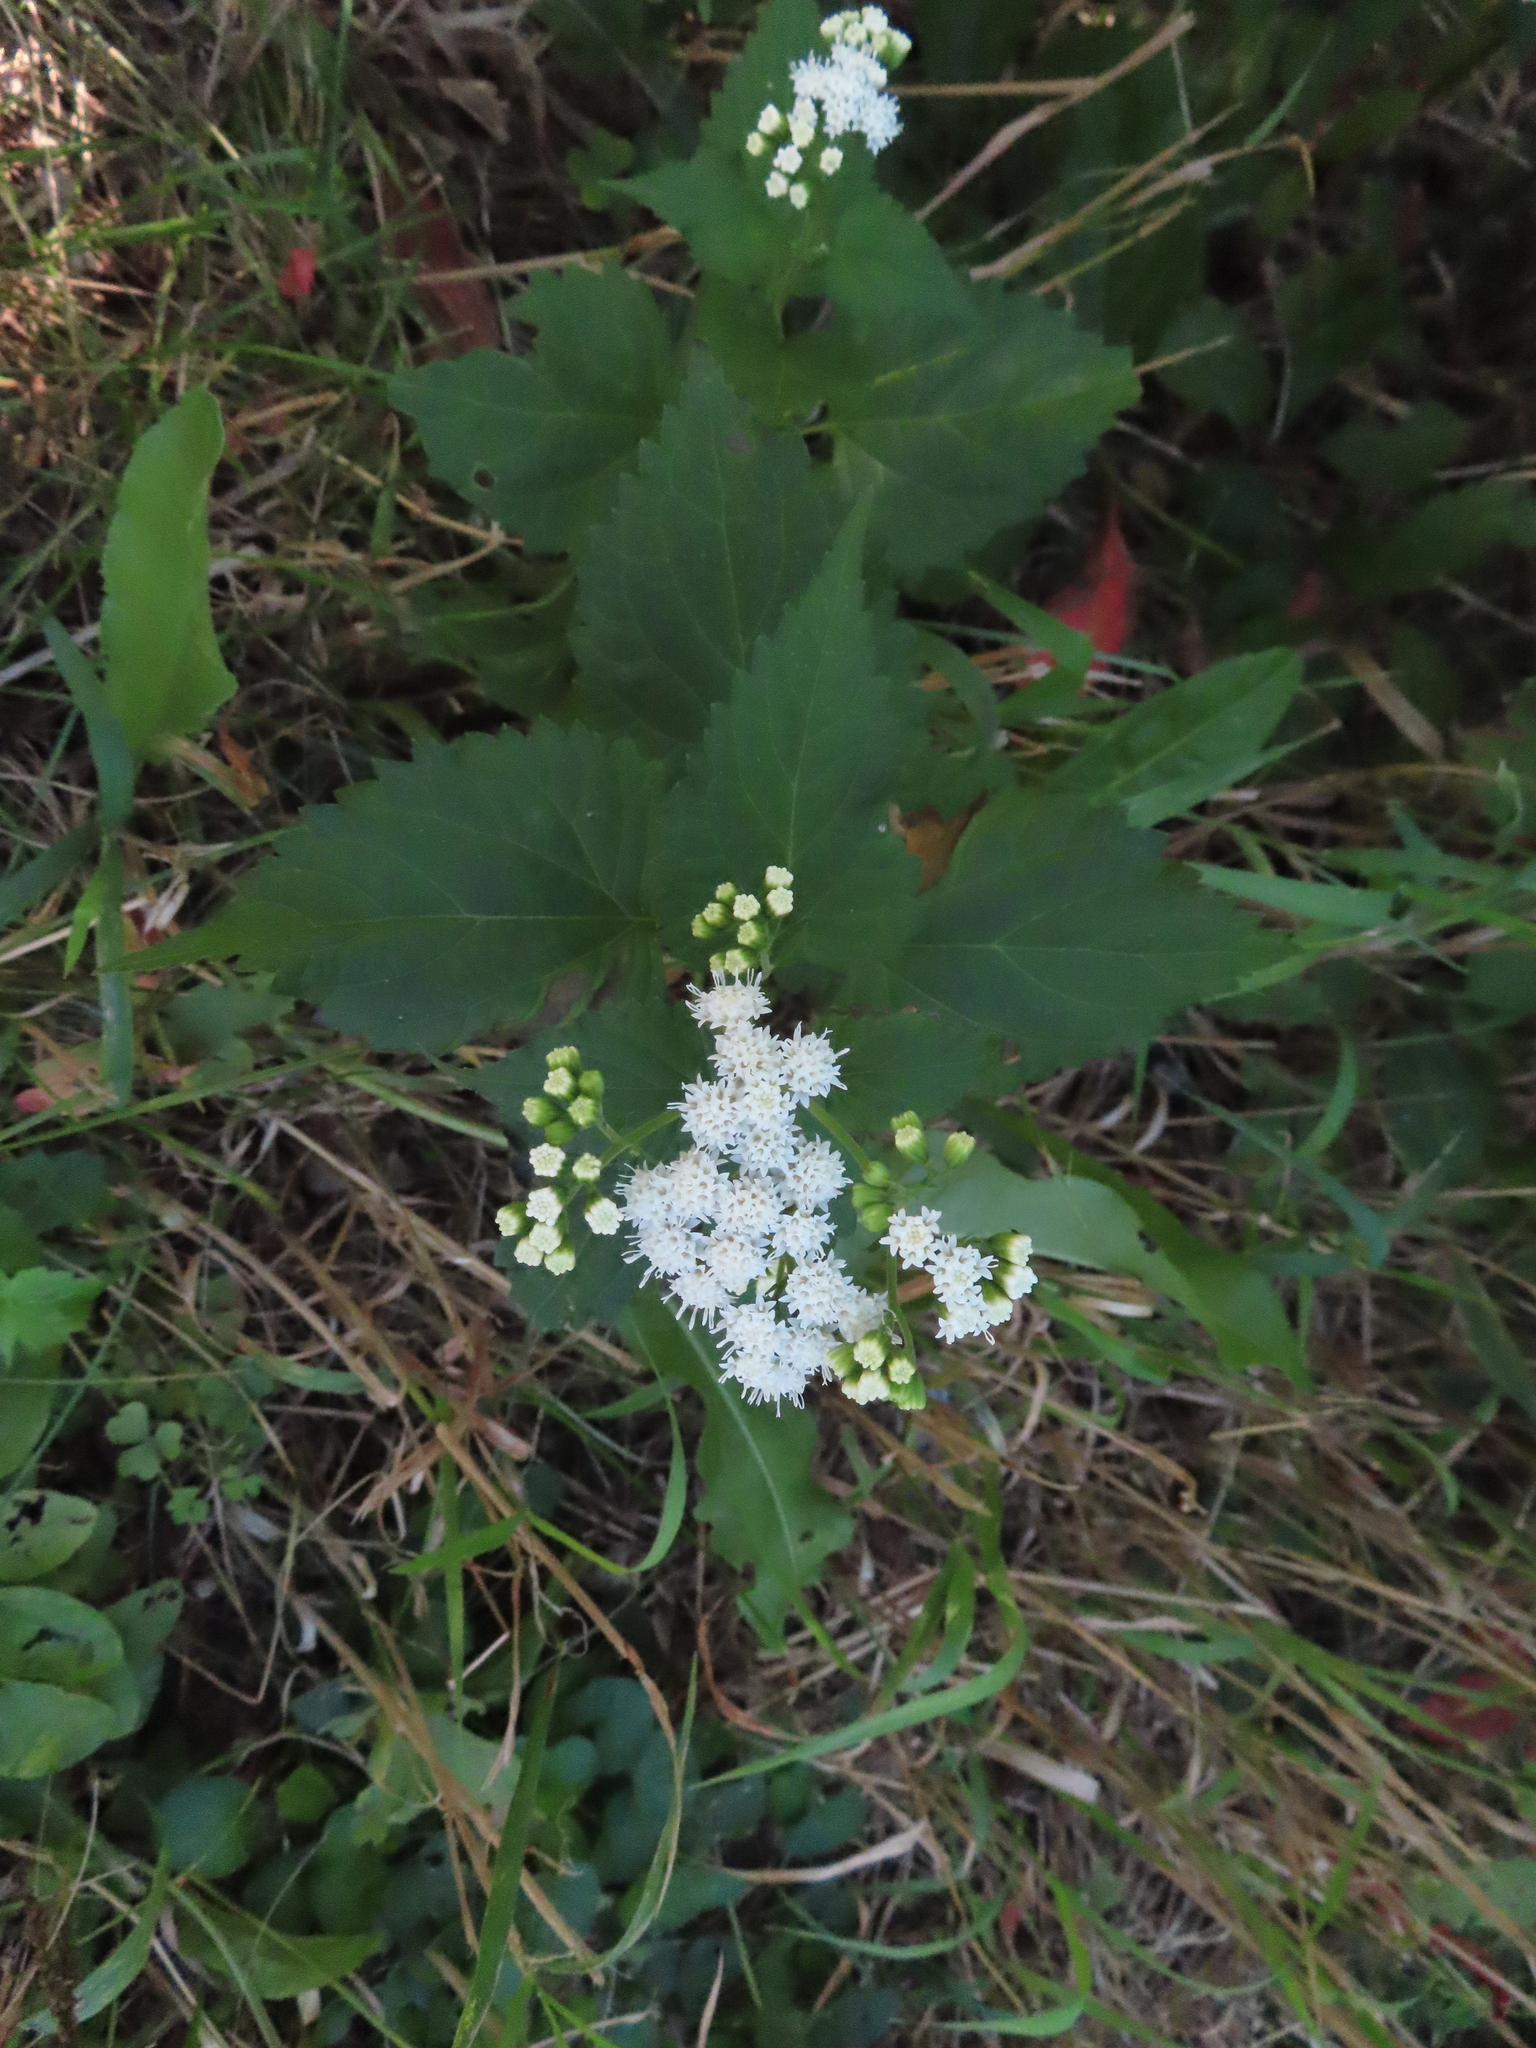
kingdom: Plantae
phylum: Tracheophyta
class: Magnoliopsida
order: Asterales
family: Asteraceae
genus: Ageratina
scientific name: Ageratina altissima
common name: White snakeroot
